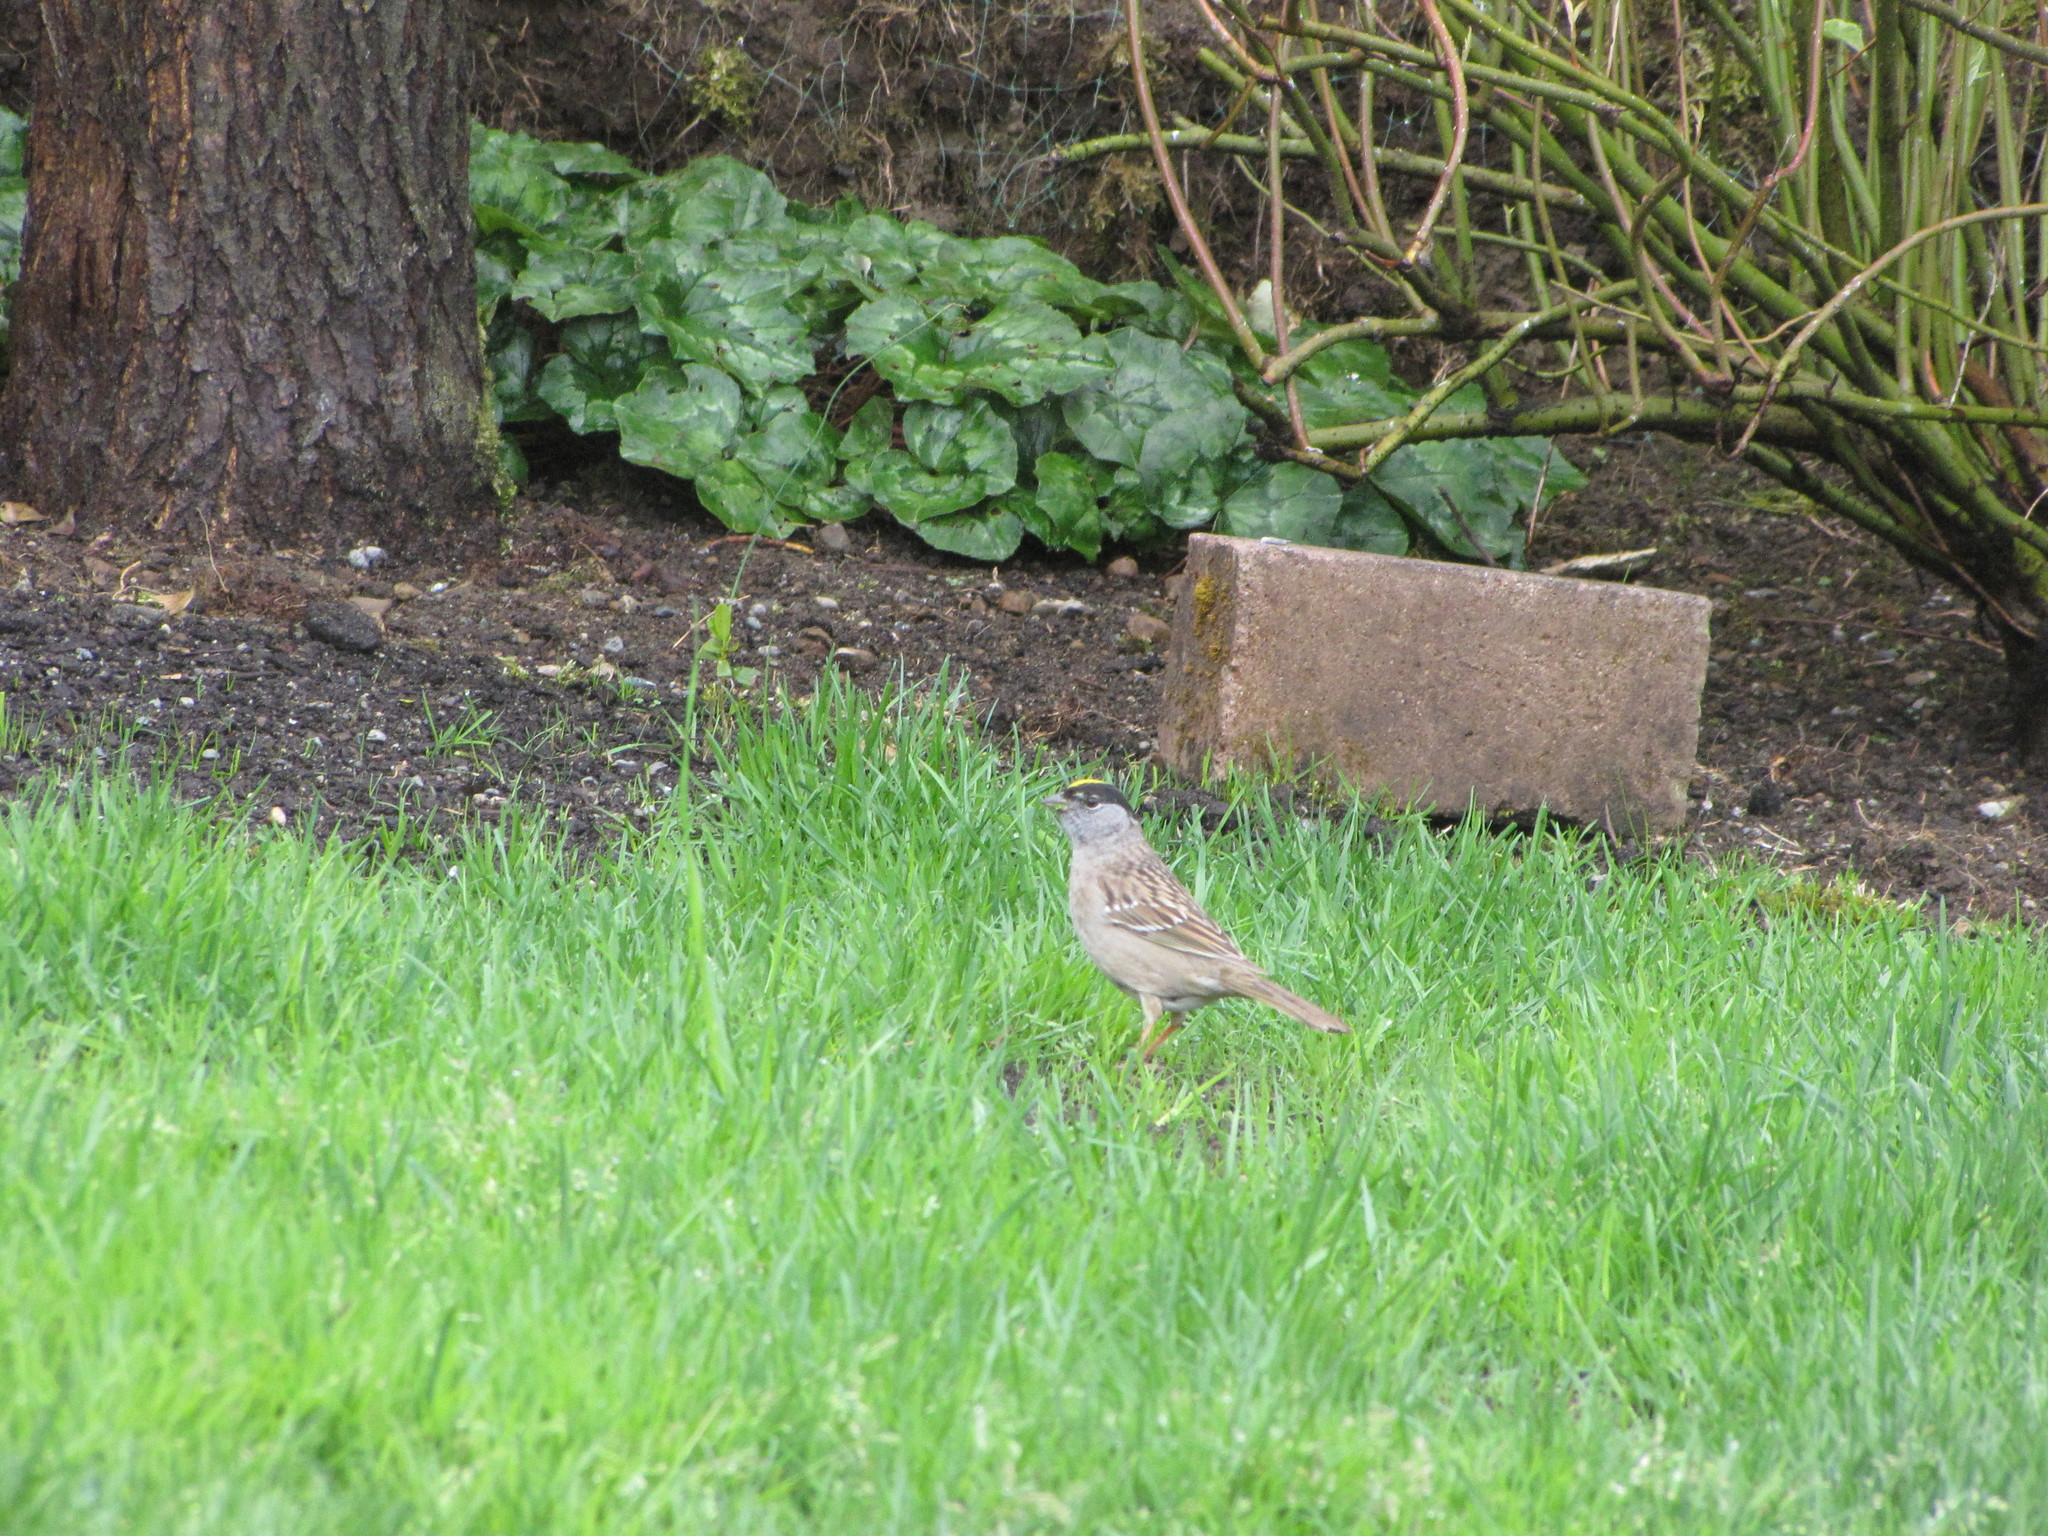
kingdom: Animalia
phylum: Chordata
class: Aves
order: Passeriformes
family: Passerellidae
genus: Zonotrichia
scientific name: Zonotrichia atricapilla
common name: Golden-crowned sparrow
